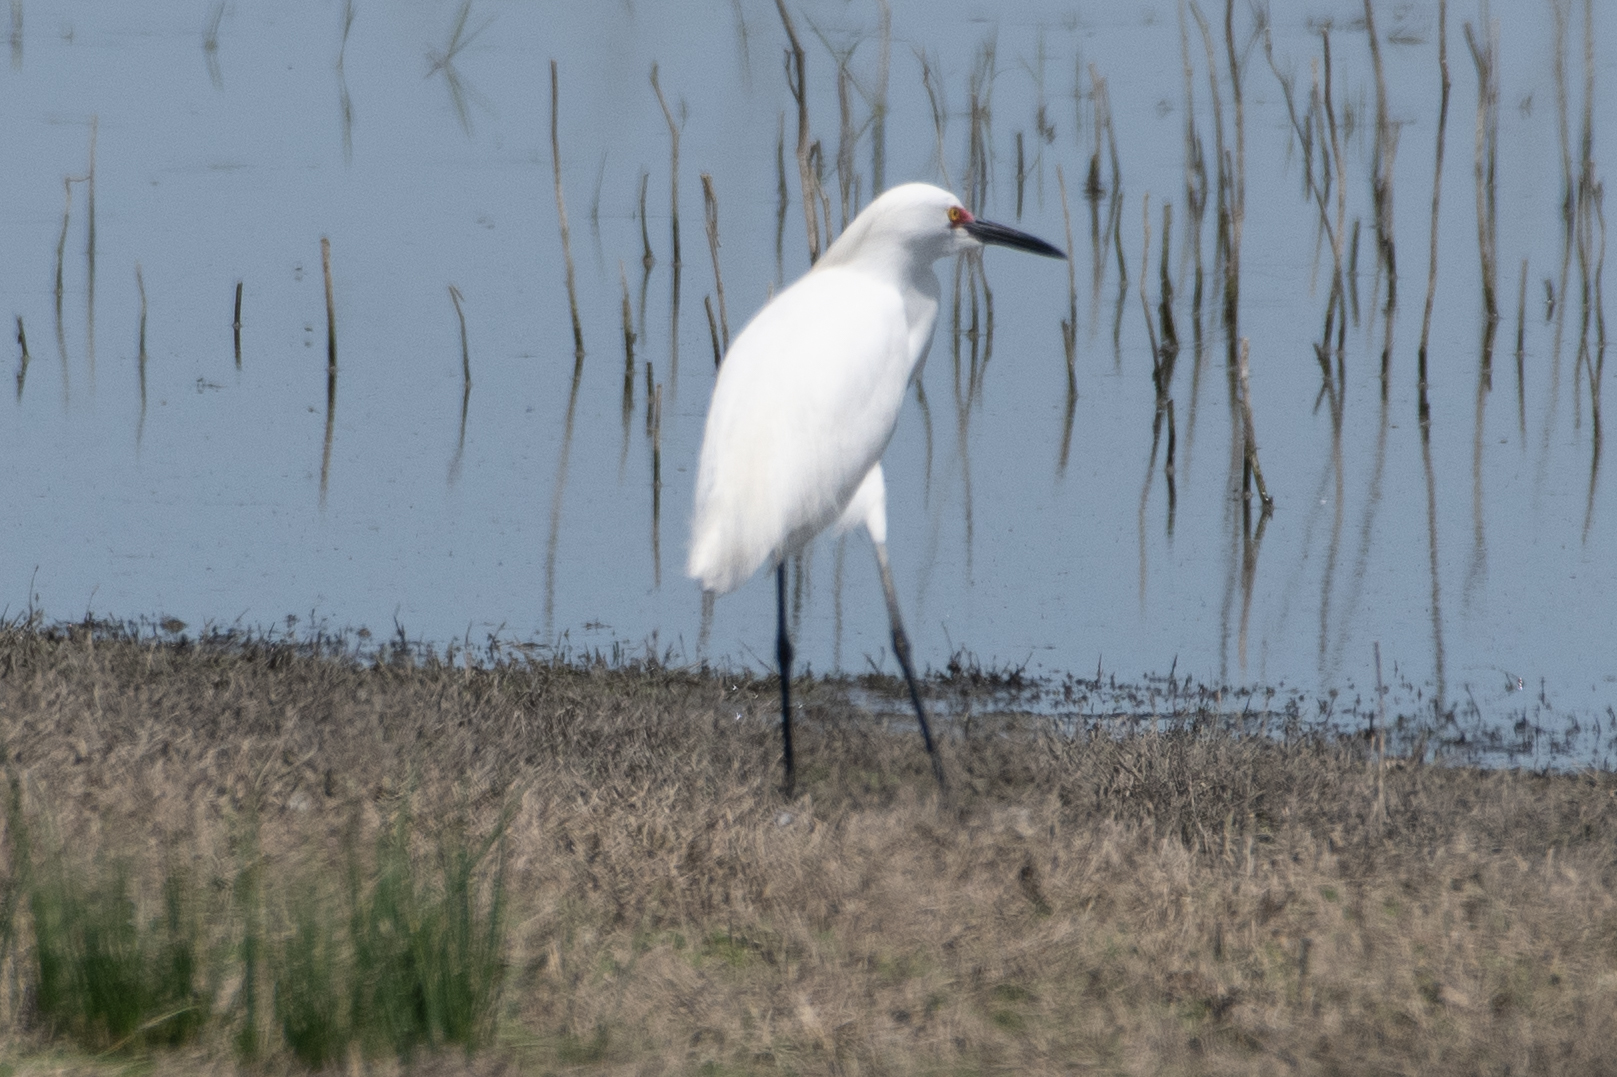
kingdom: Animalia
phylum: Chordata
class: Aves
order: Pelecaniformes
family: Ardeidae
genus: Egretta
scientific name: Egretta thula
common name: Snowy egret
